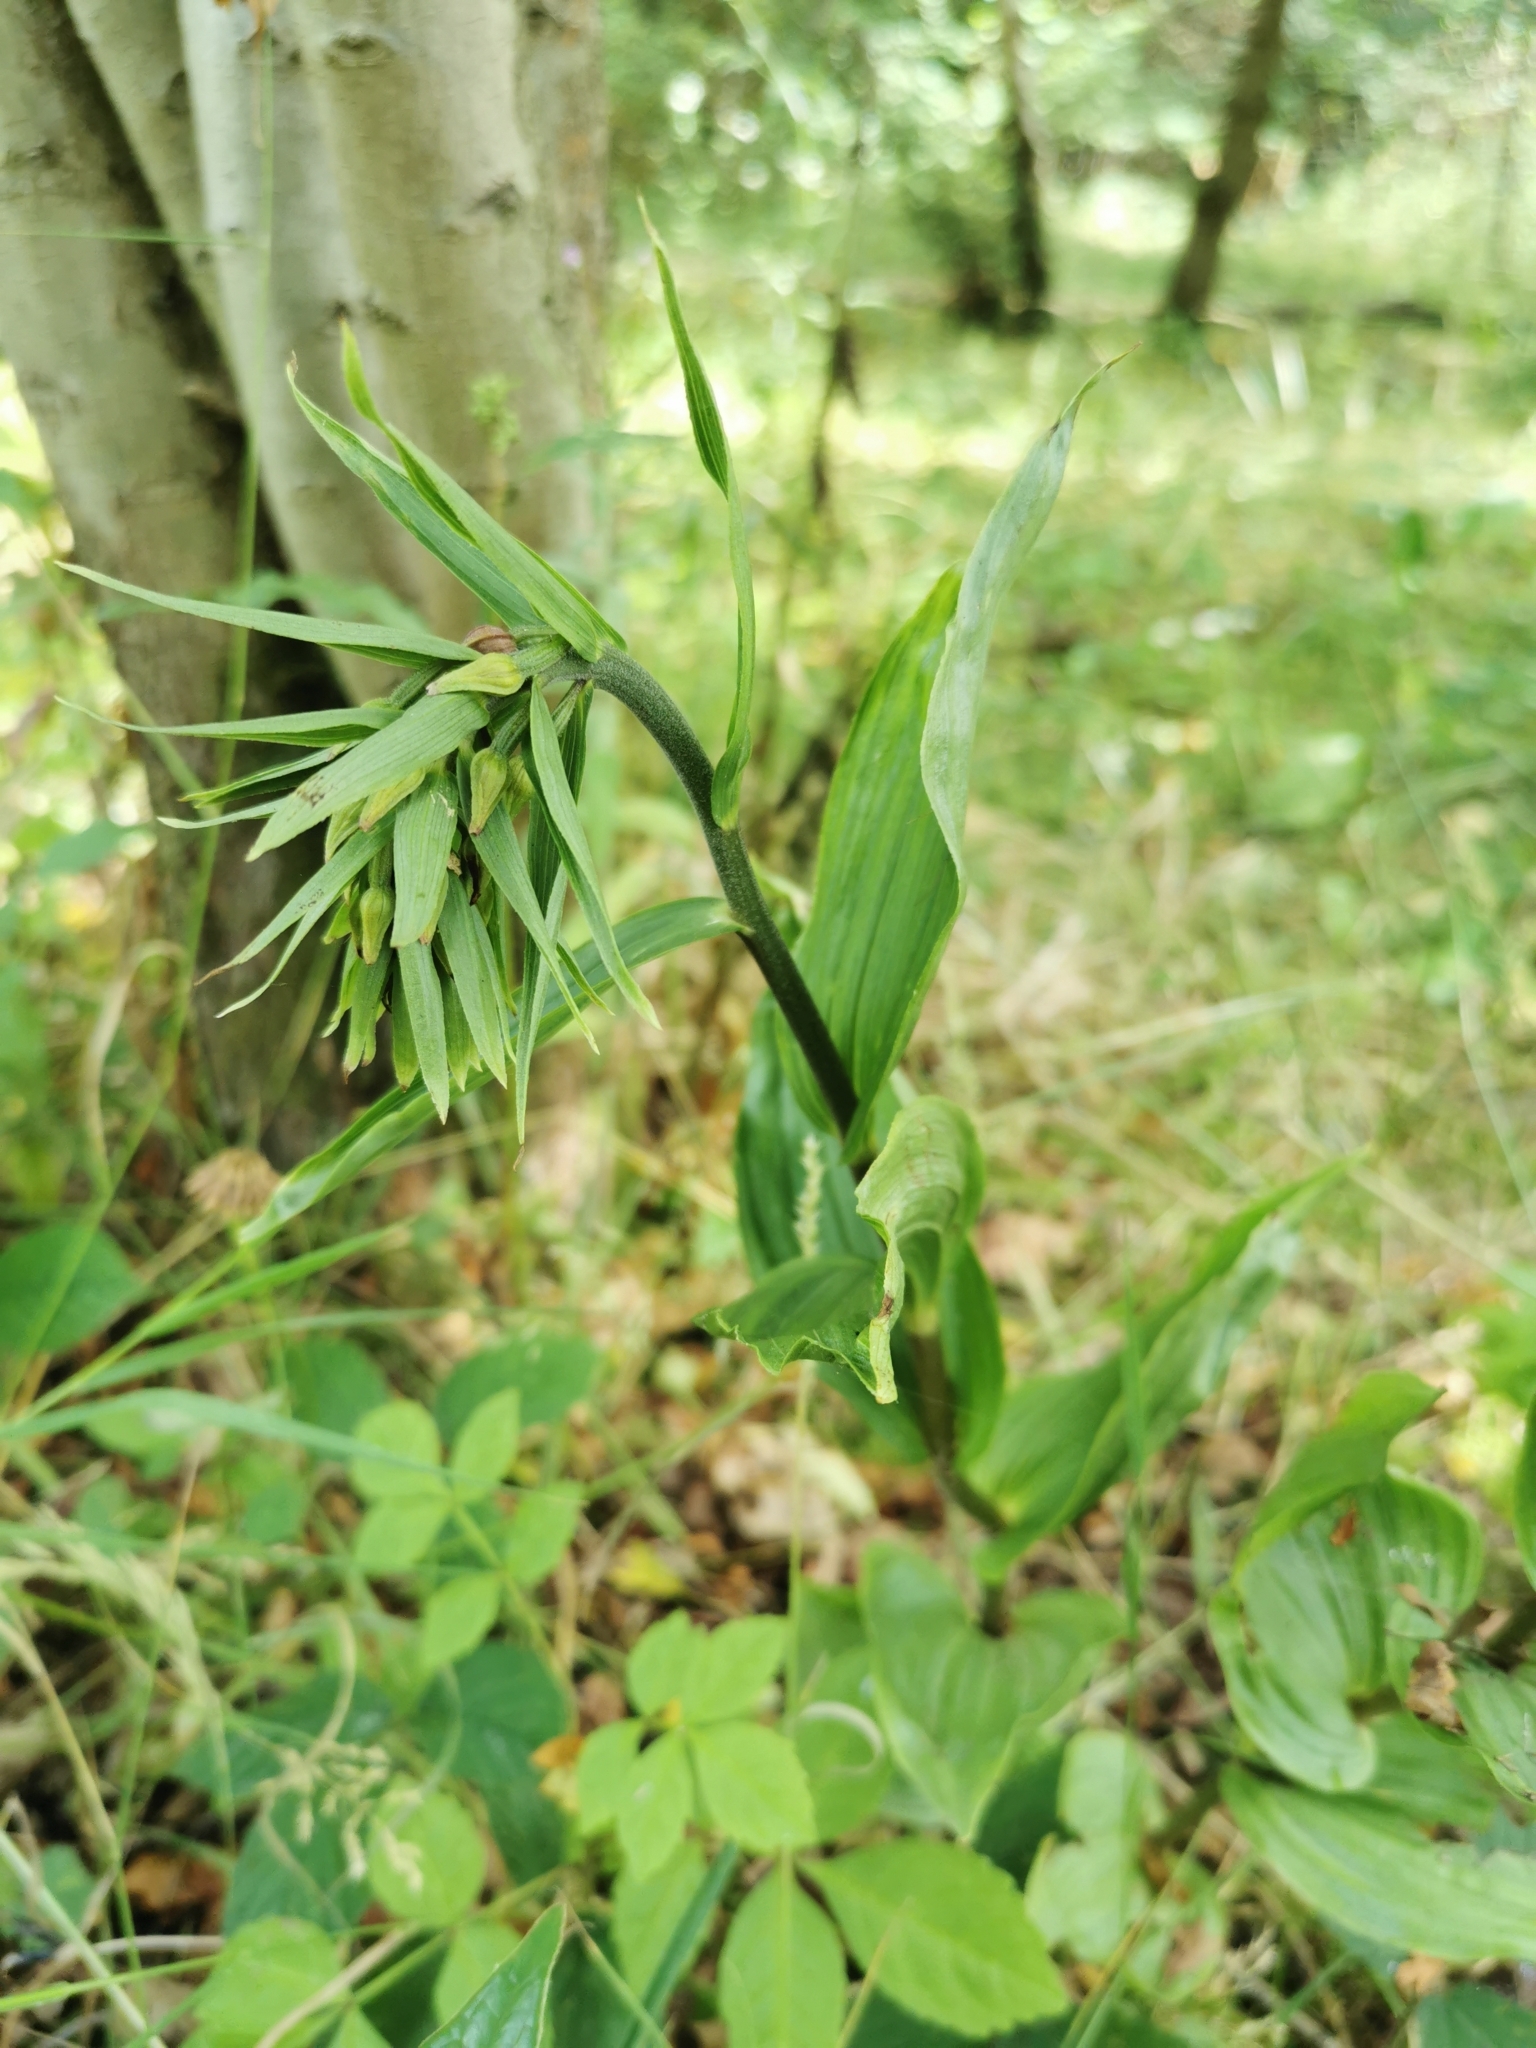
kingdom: Plantae
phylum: Tracheophyta
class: Liliopsida
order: Asparagales
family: Orchidaceae
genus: Epipactis
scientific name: Epipactis helleborine
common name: Broad-leaved helleborine
